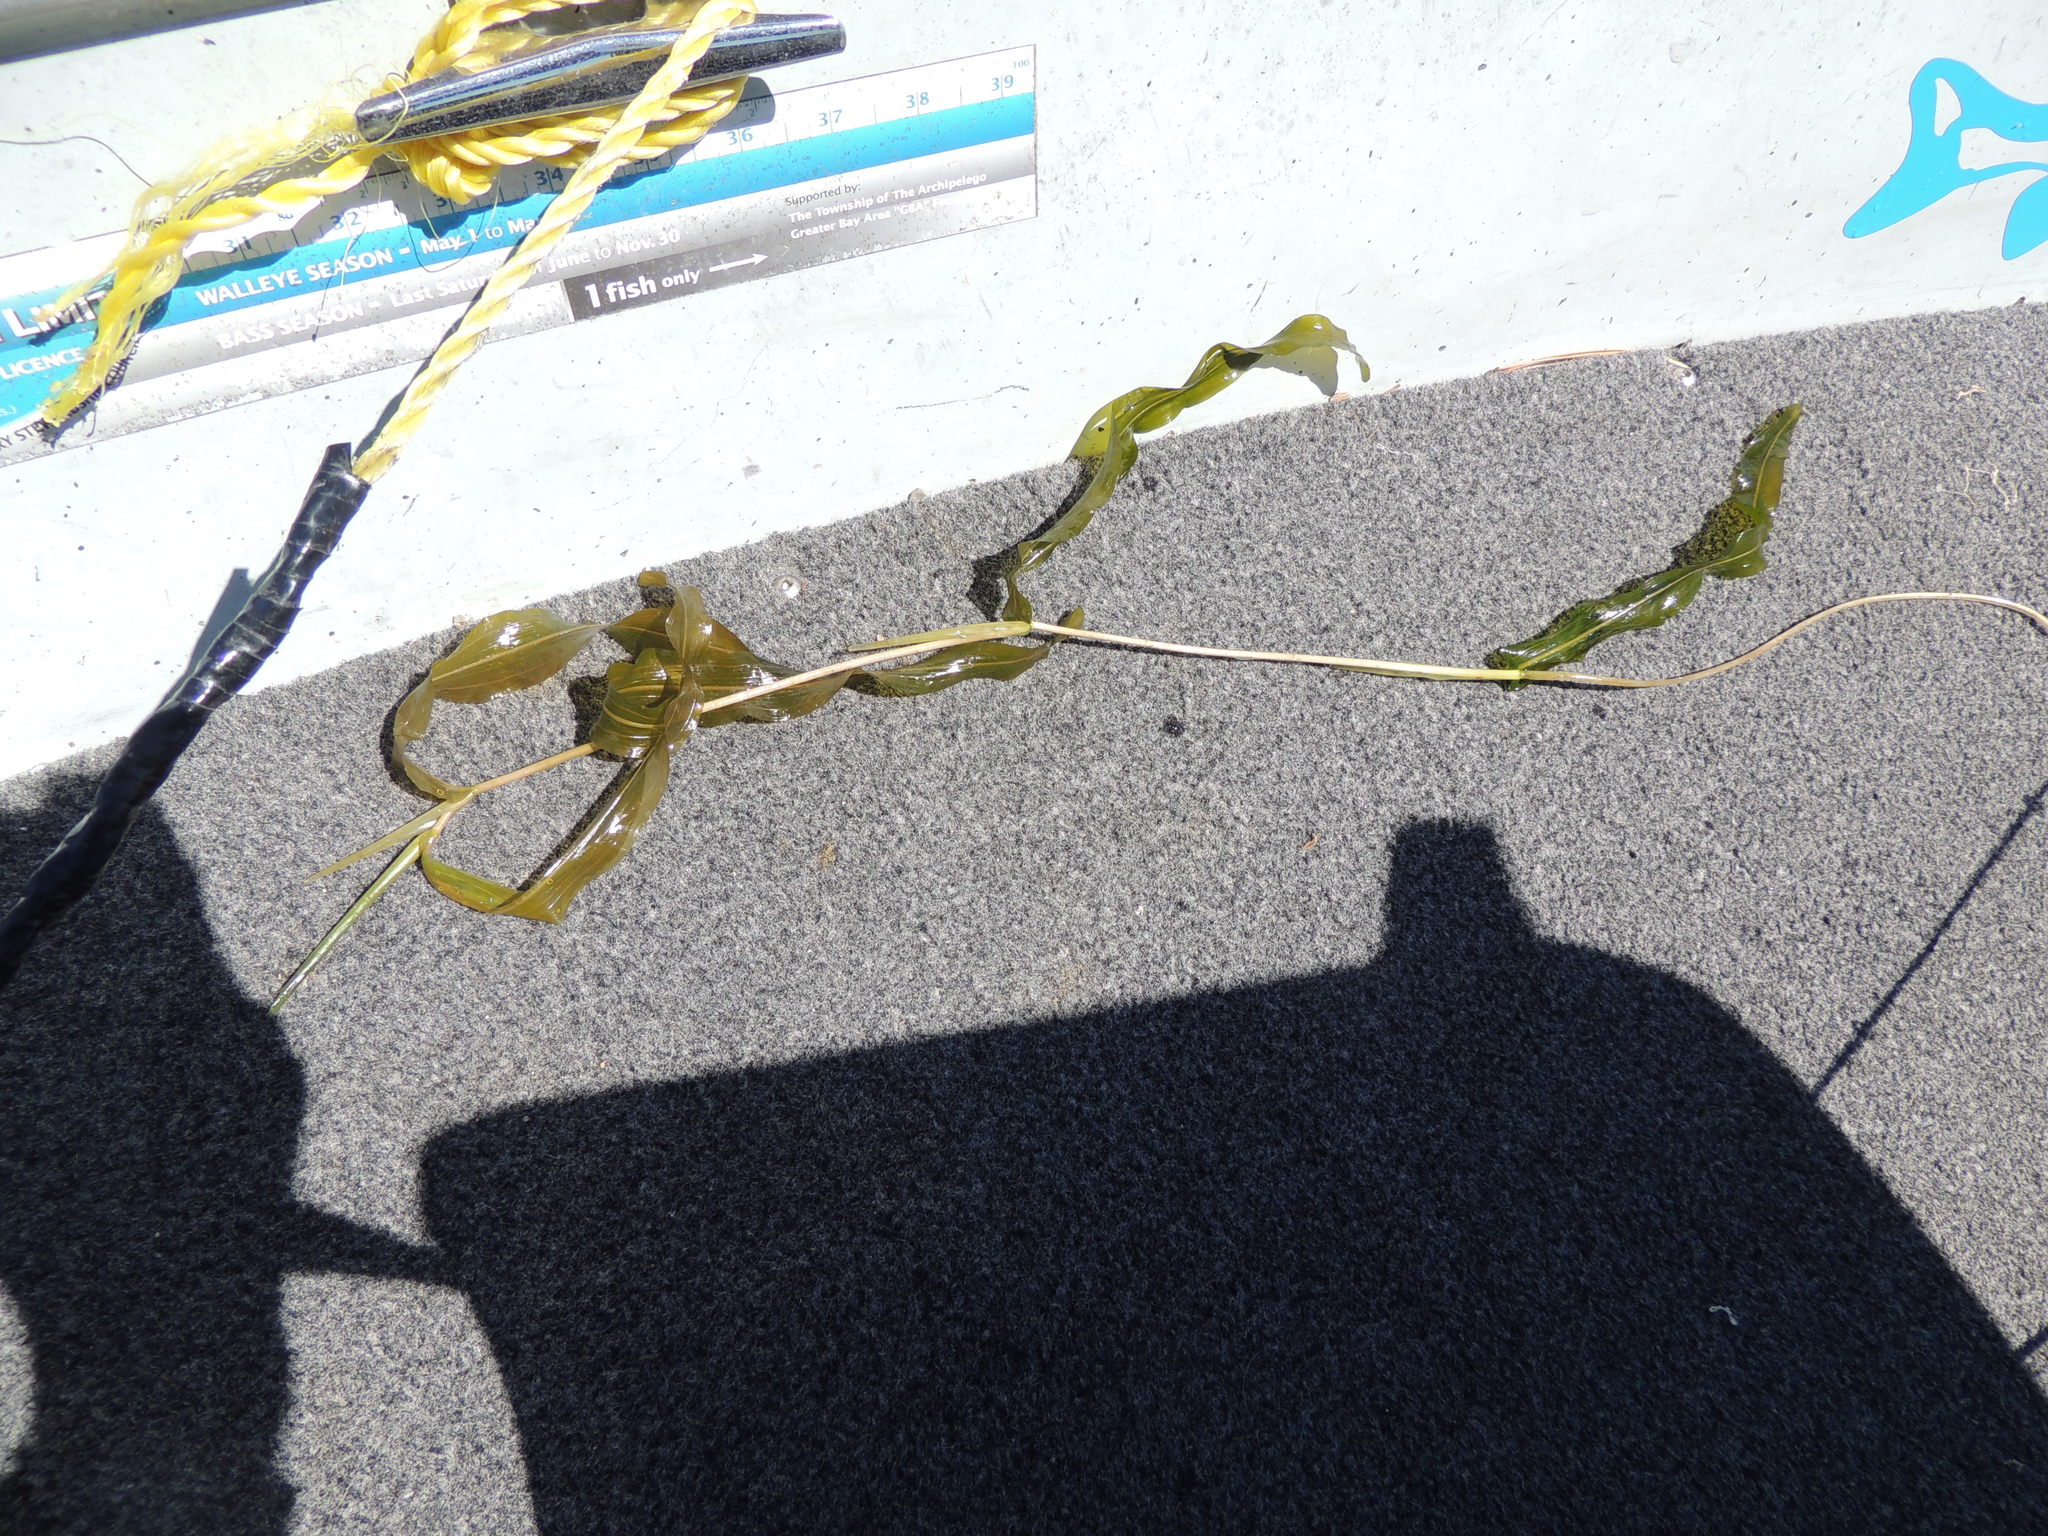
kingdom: Plantae
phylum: Tracheophyta
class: Liliopsida
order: Alismatales
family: Potamogetonaceae
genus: Potamogeton
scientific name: Potamogeton praelongus
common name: Long-stalked pondweed
